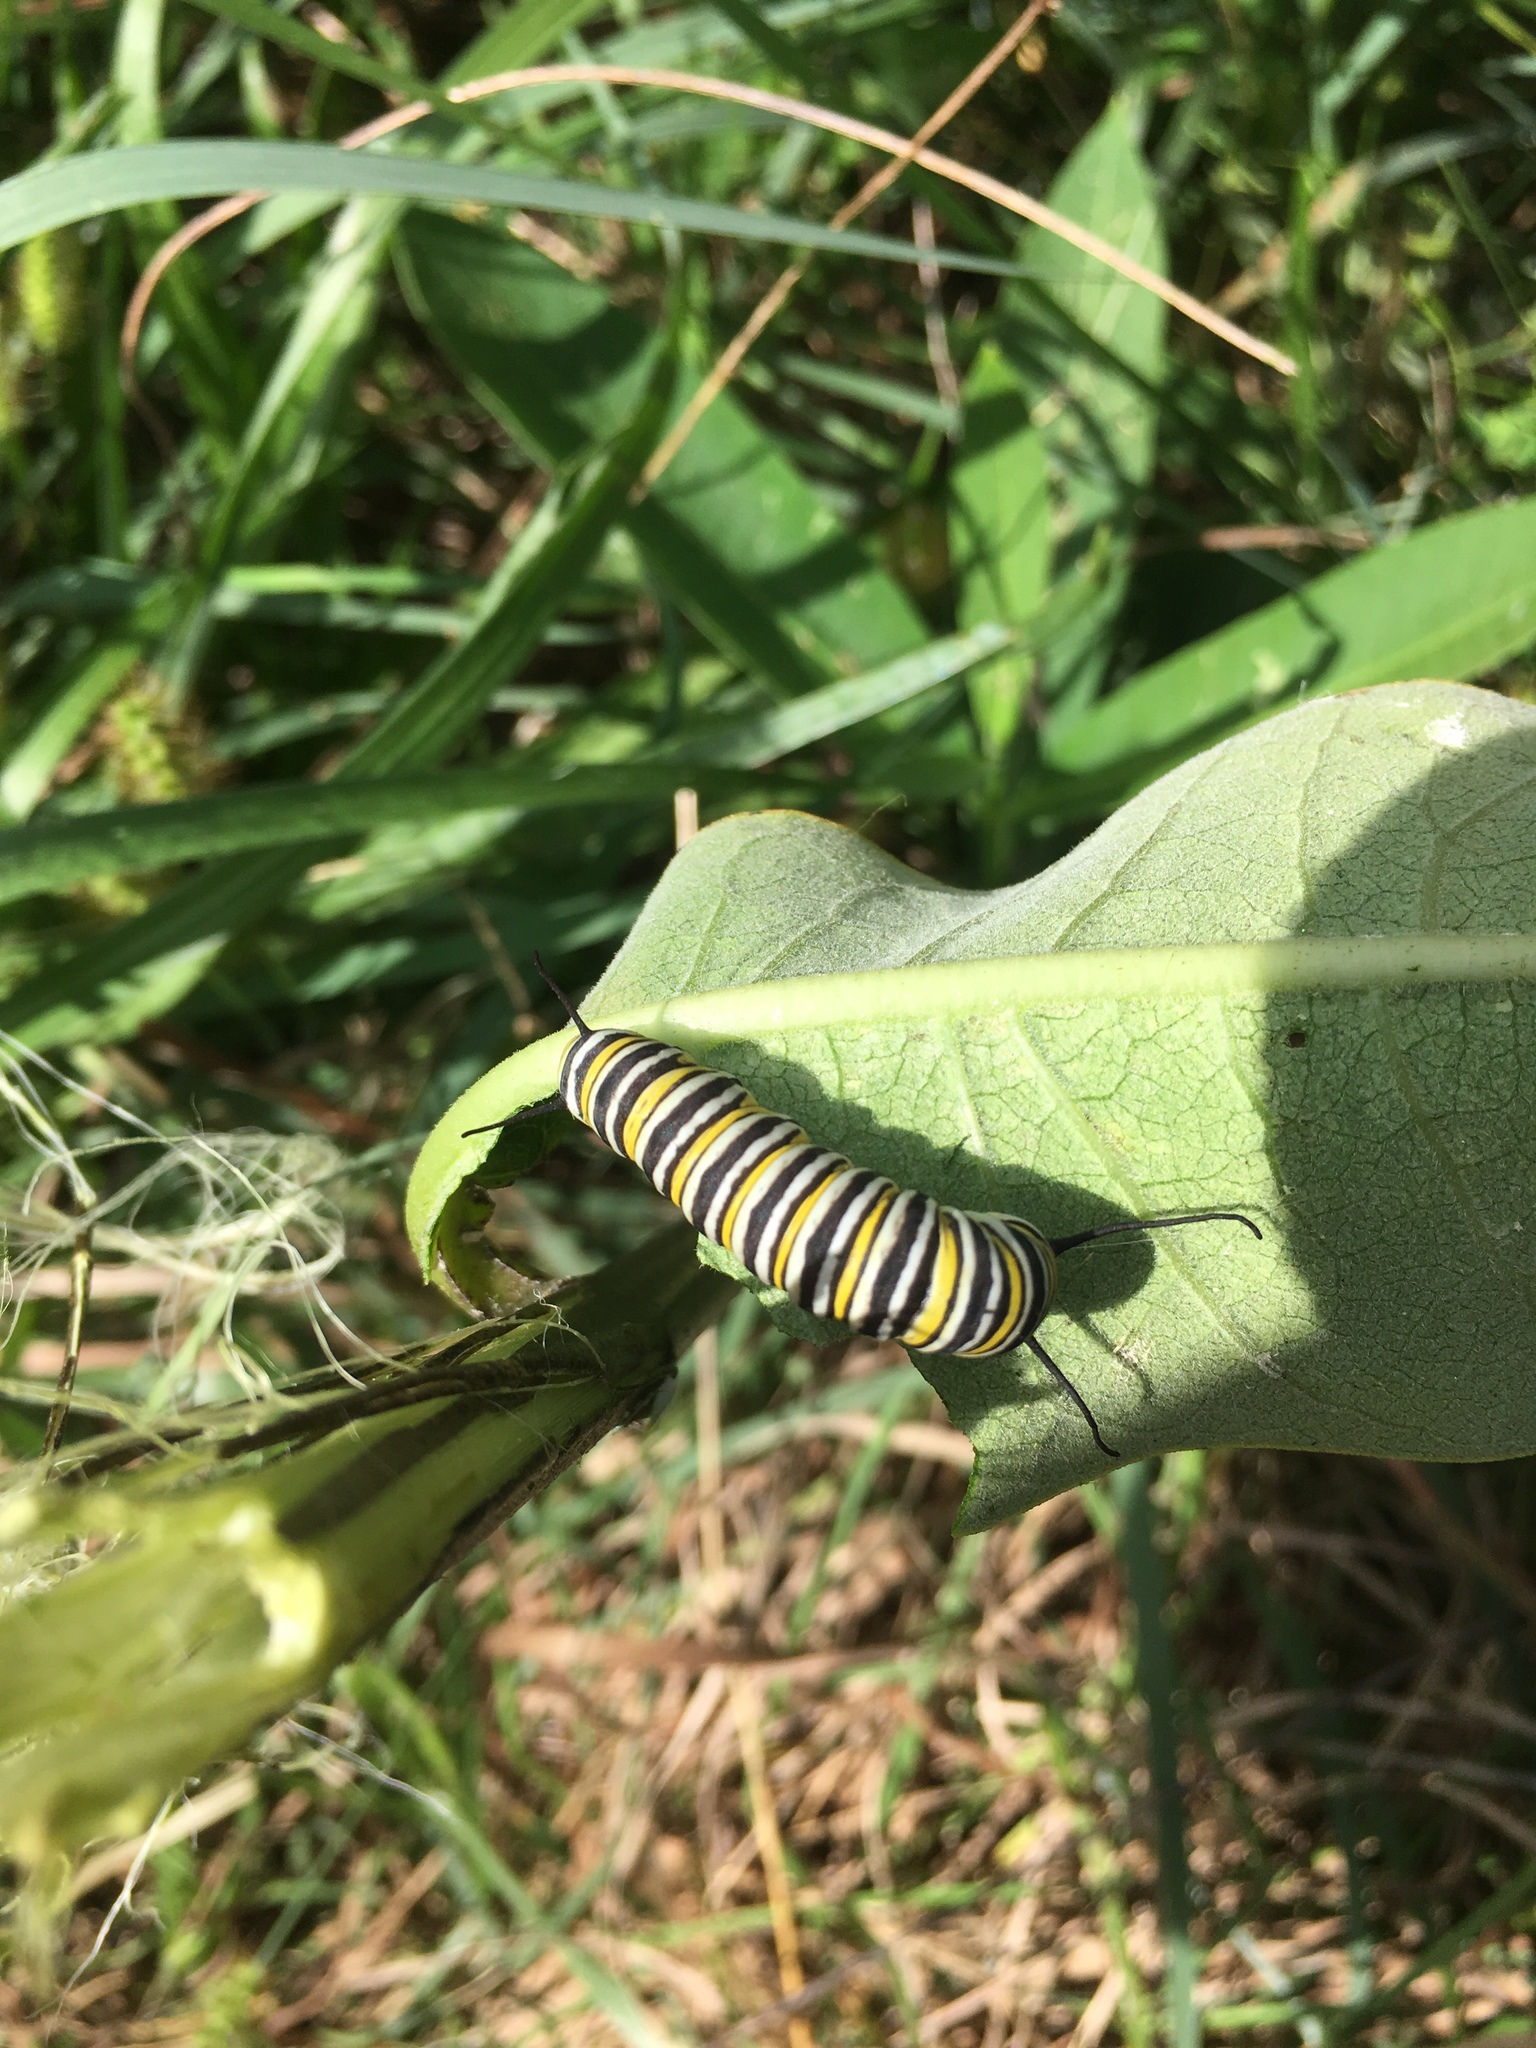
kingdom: Animalia
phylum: Arthropoda
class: Insecta
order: Lepidoptera
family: Nymphalidae
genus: Danaus
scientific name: Danaus plexippus
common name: Monarch
